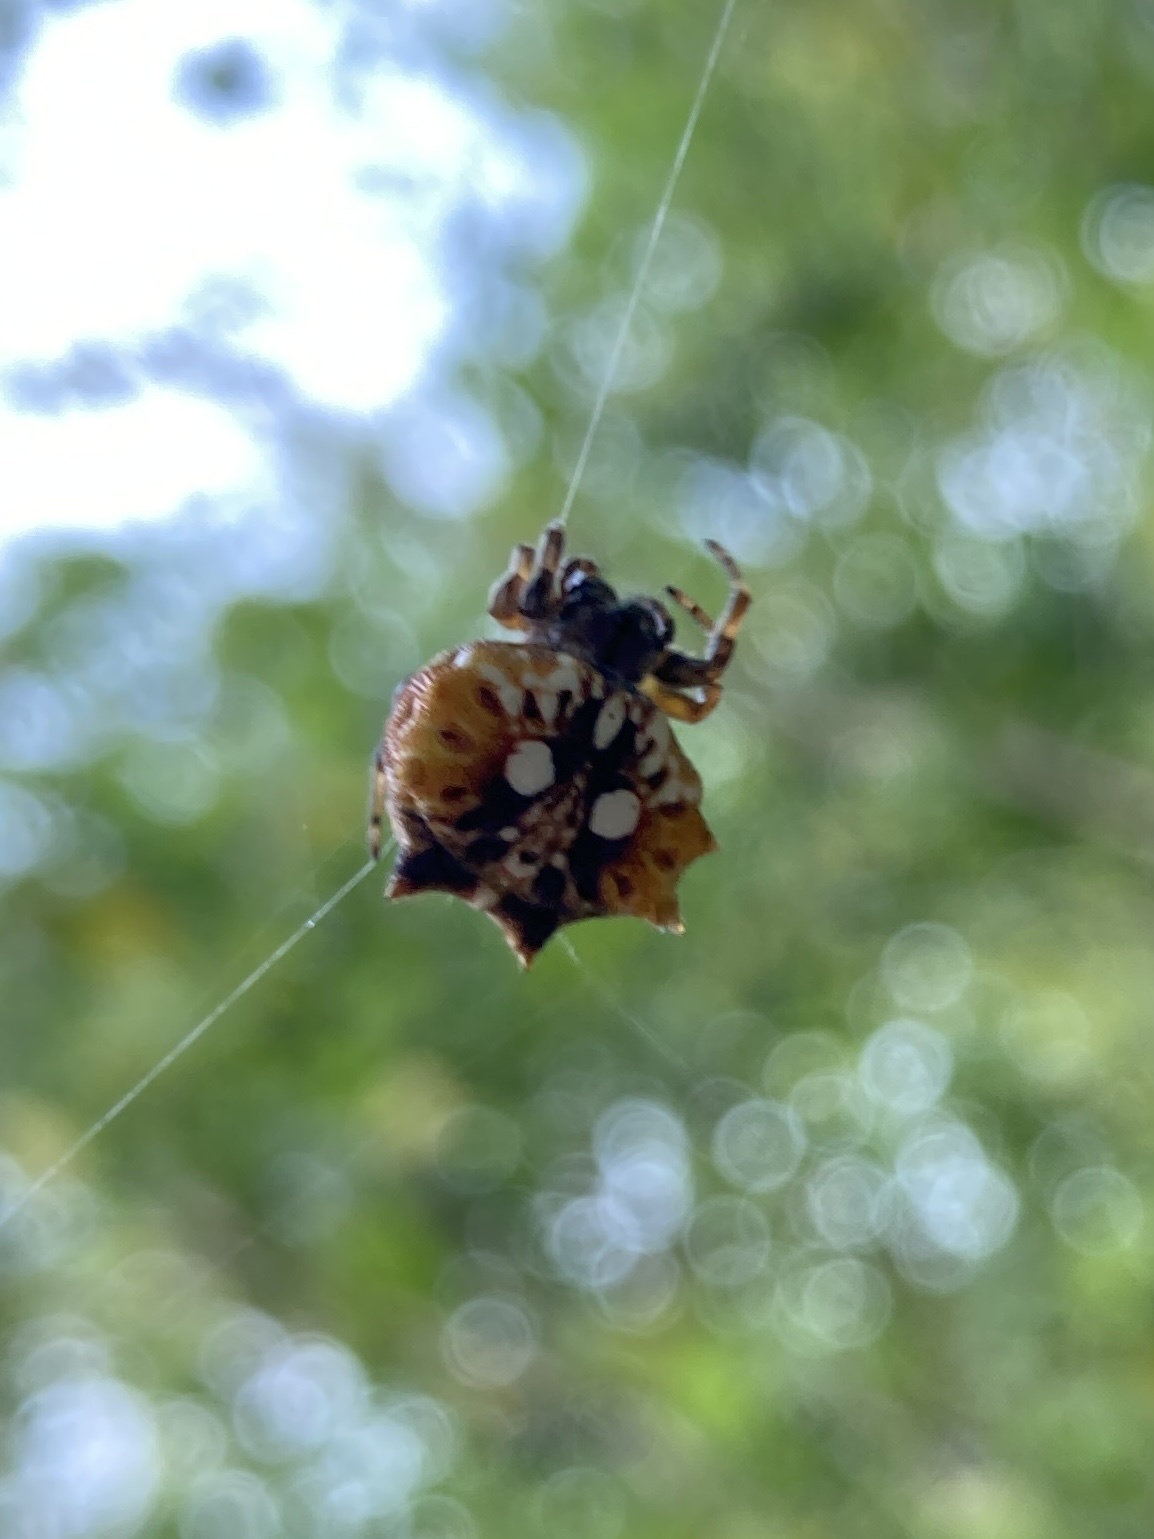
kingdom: Animalia
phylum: Arthropoda
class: Arachnida
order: Araneae
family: Araneidae
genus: Thelacantha
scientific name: Thelacantha brevispina
